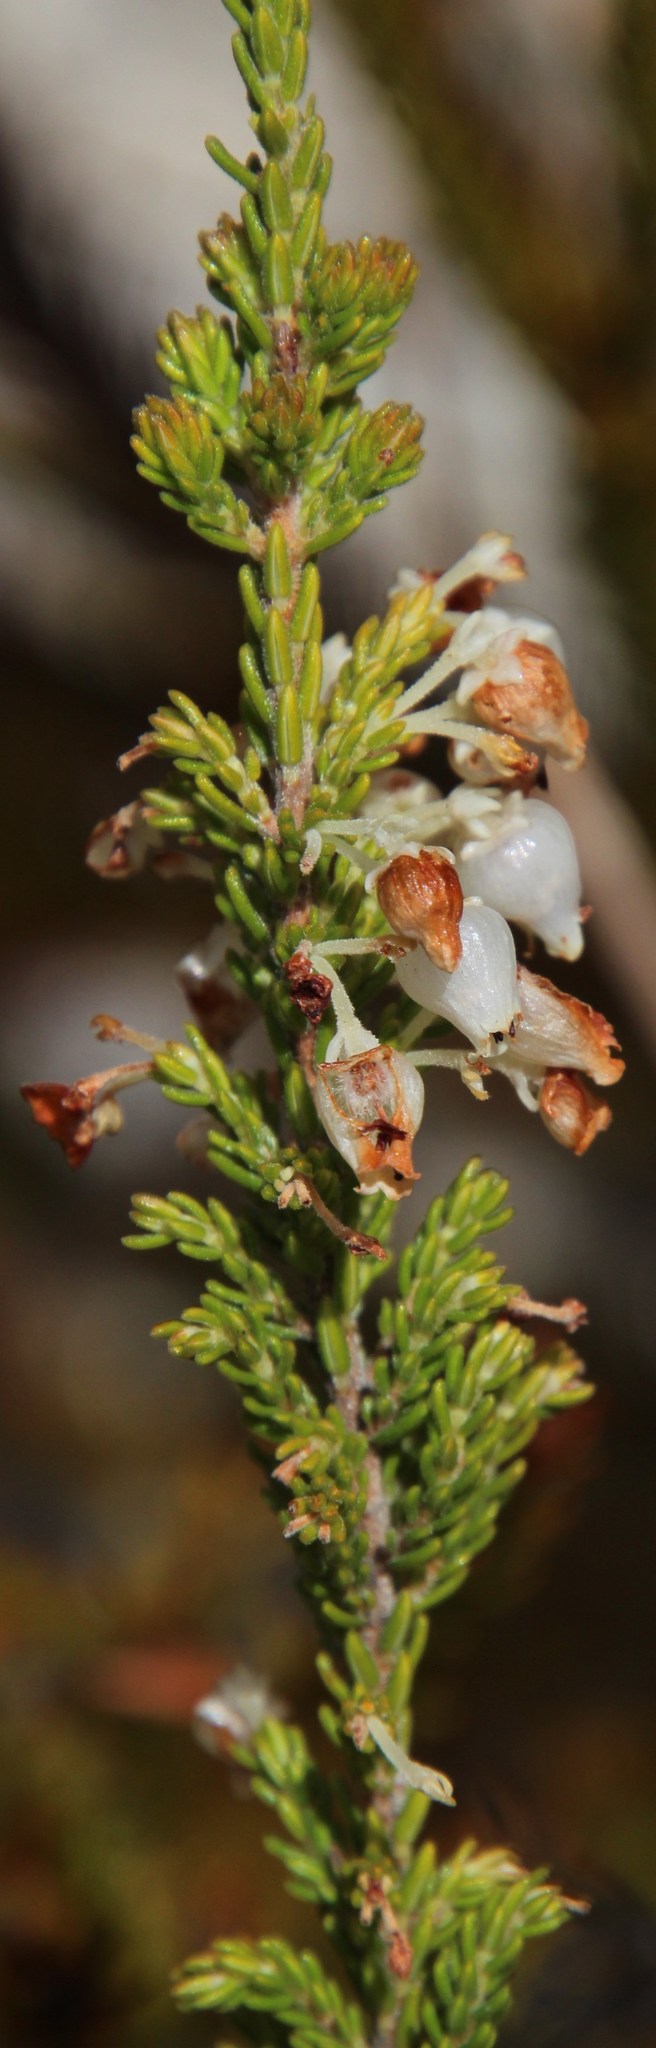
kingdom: Plantae
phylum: Tracheophyta
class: Magnoliopsida
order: Ericales
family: Ericaceae
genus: Erica
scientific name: Erica glomiflora
